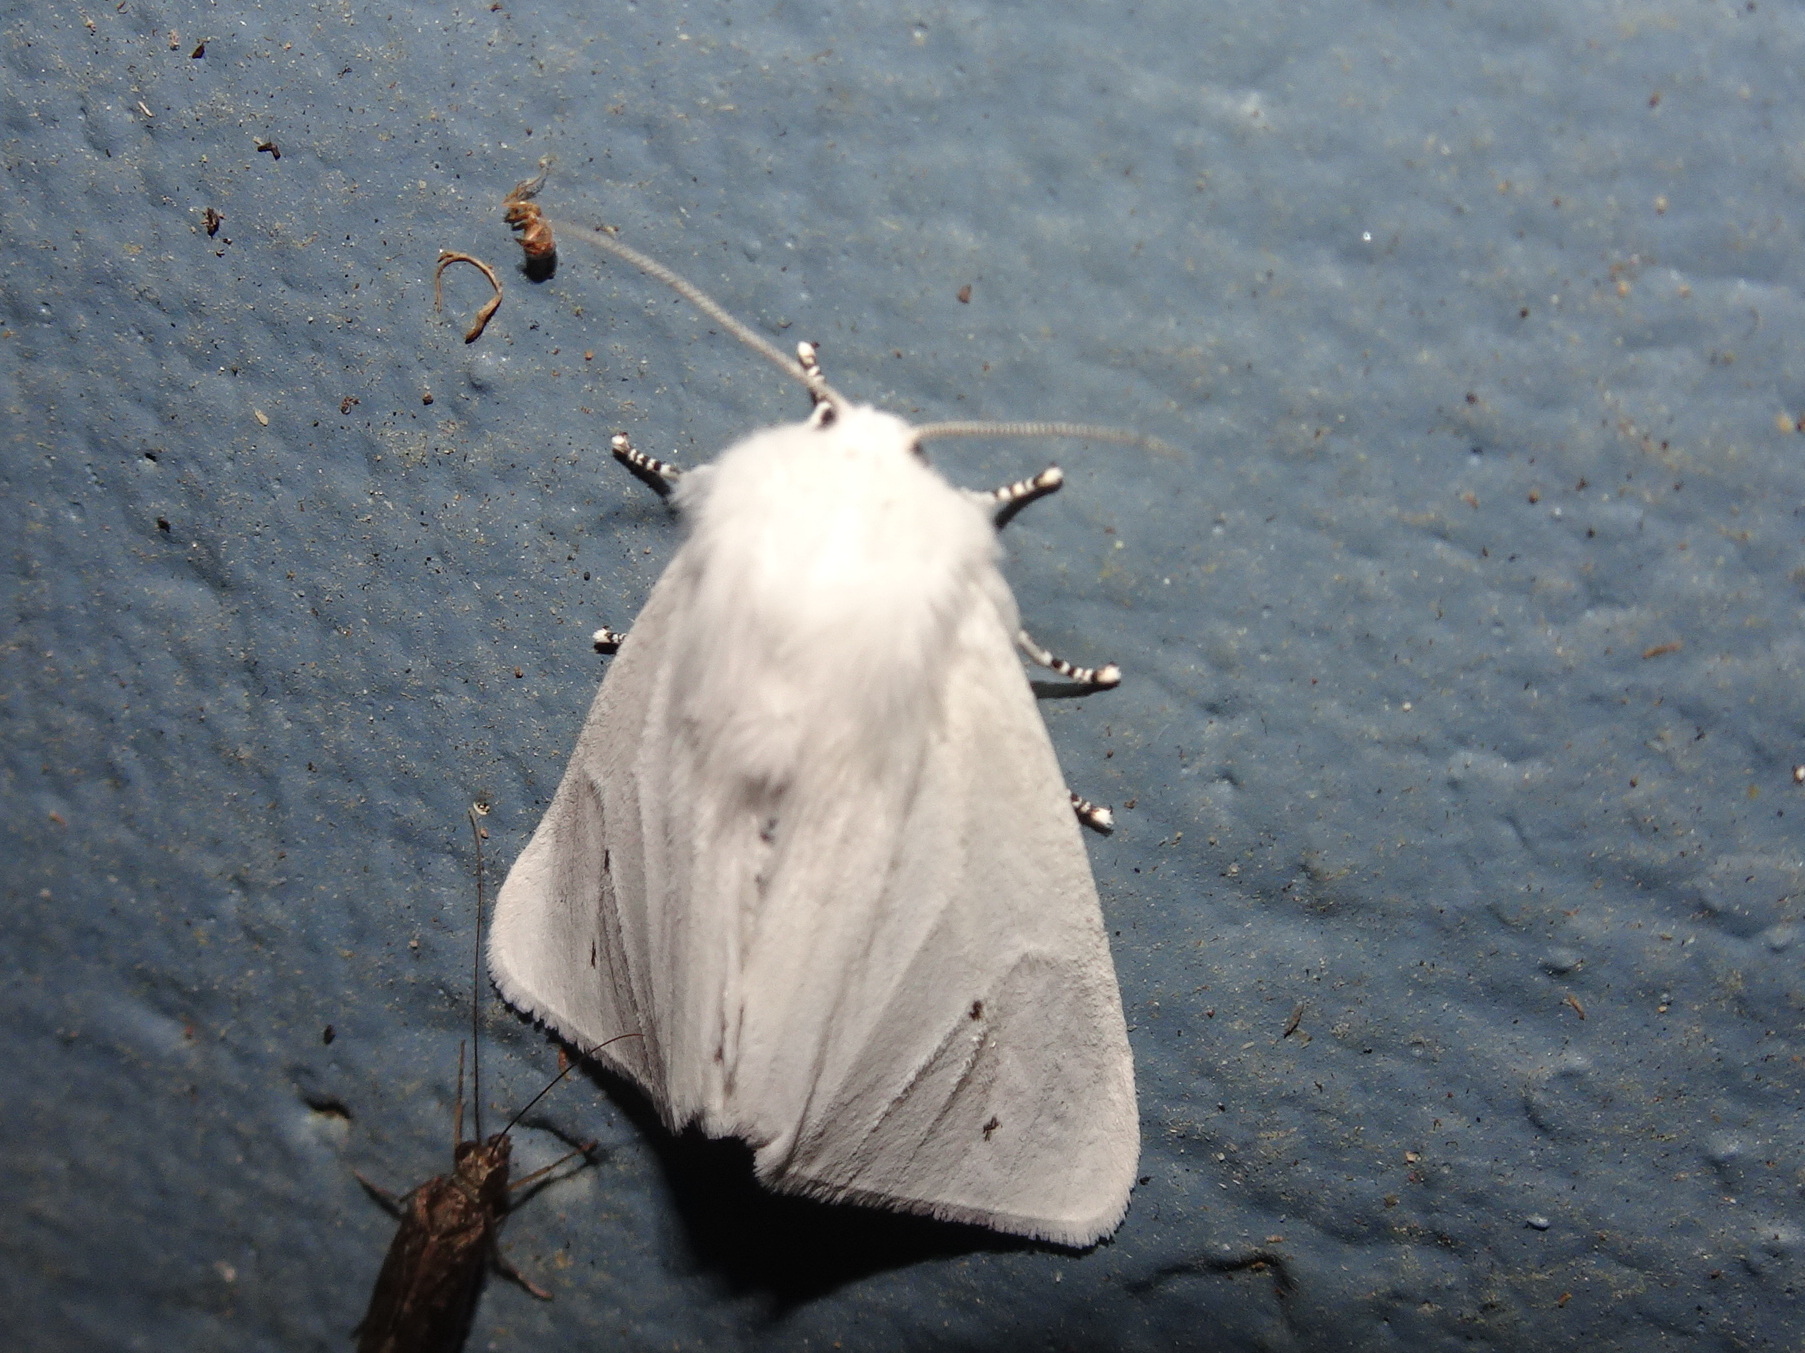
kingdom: Animalia
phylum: Arthropoda
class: Insecta
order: Lepidoptera
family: Erebidae
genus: Spilosoma
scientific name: Spilosoma virginica
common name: Virginia tiger moth
